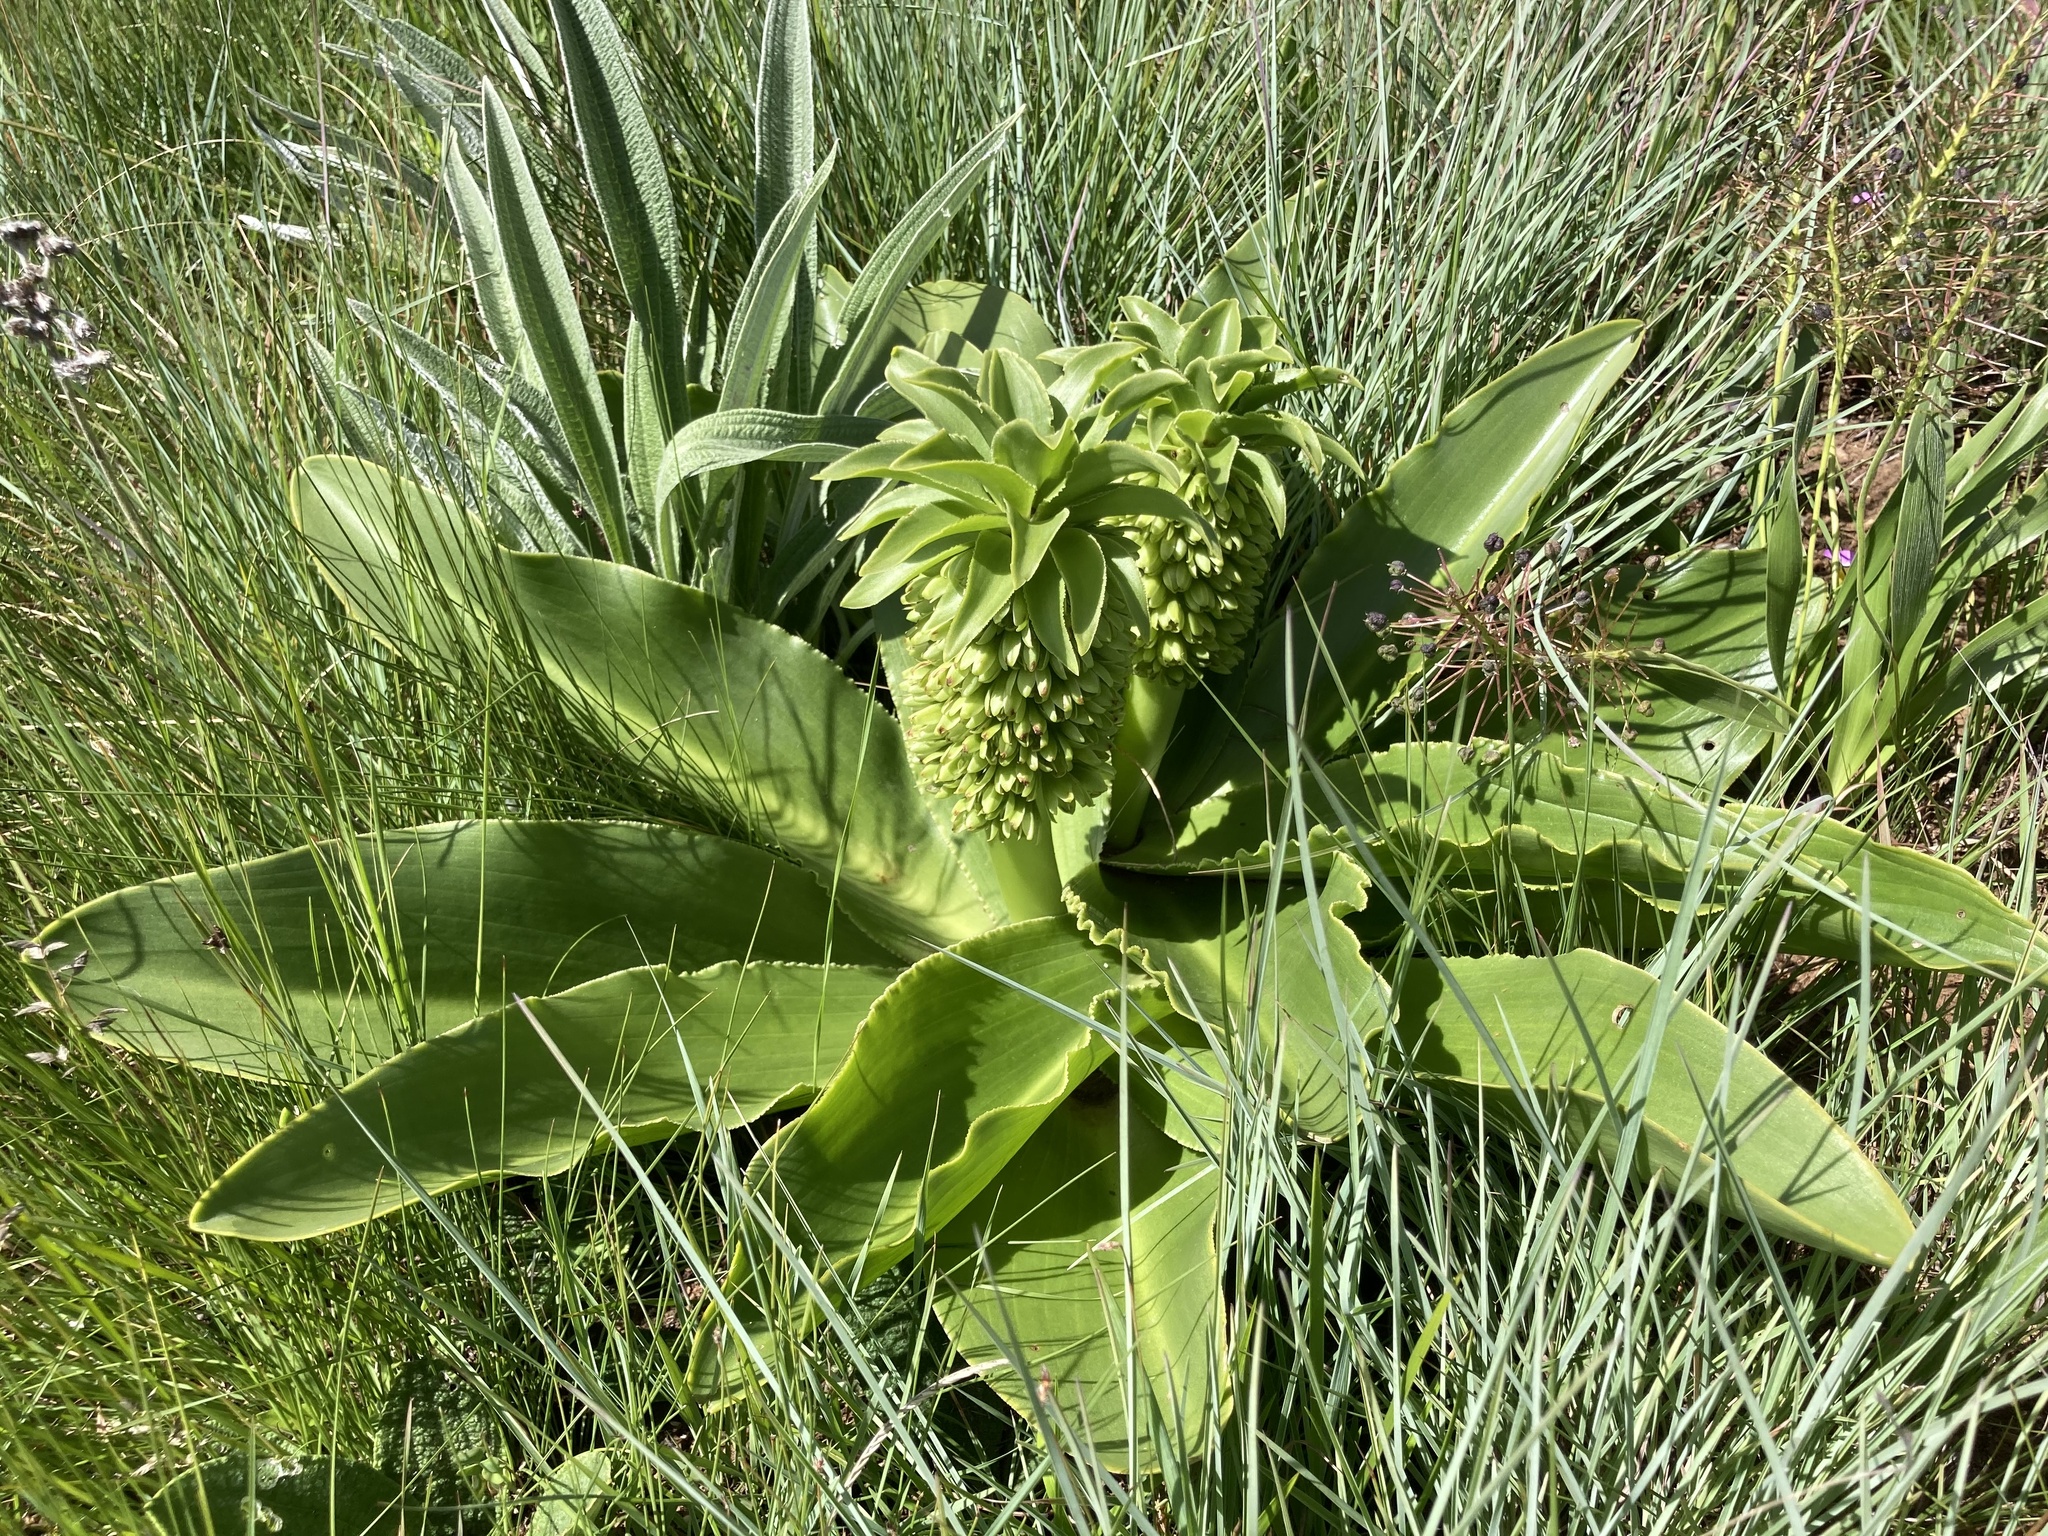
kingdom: Plantae
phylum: Tracheophyta
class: Liliopsida
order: Asparagales
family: Asparagaceae
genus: Eucomis
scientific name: Eucomis autumnalis
